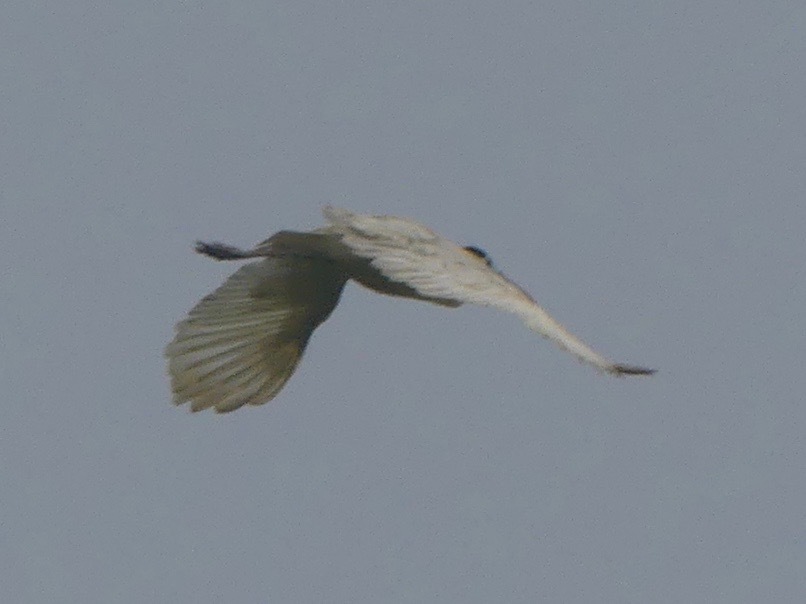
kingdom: Animalia
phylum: Chordata
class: Aves
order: Pelecaniformes
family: Ardeidae
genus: Pilherodius
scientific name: Pilherodius pileatus
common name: Capped heron
